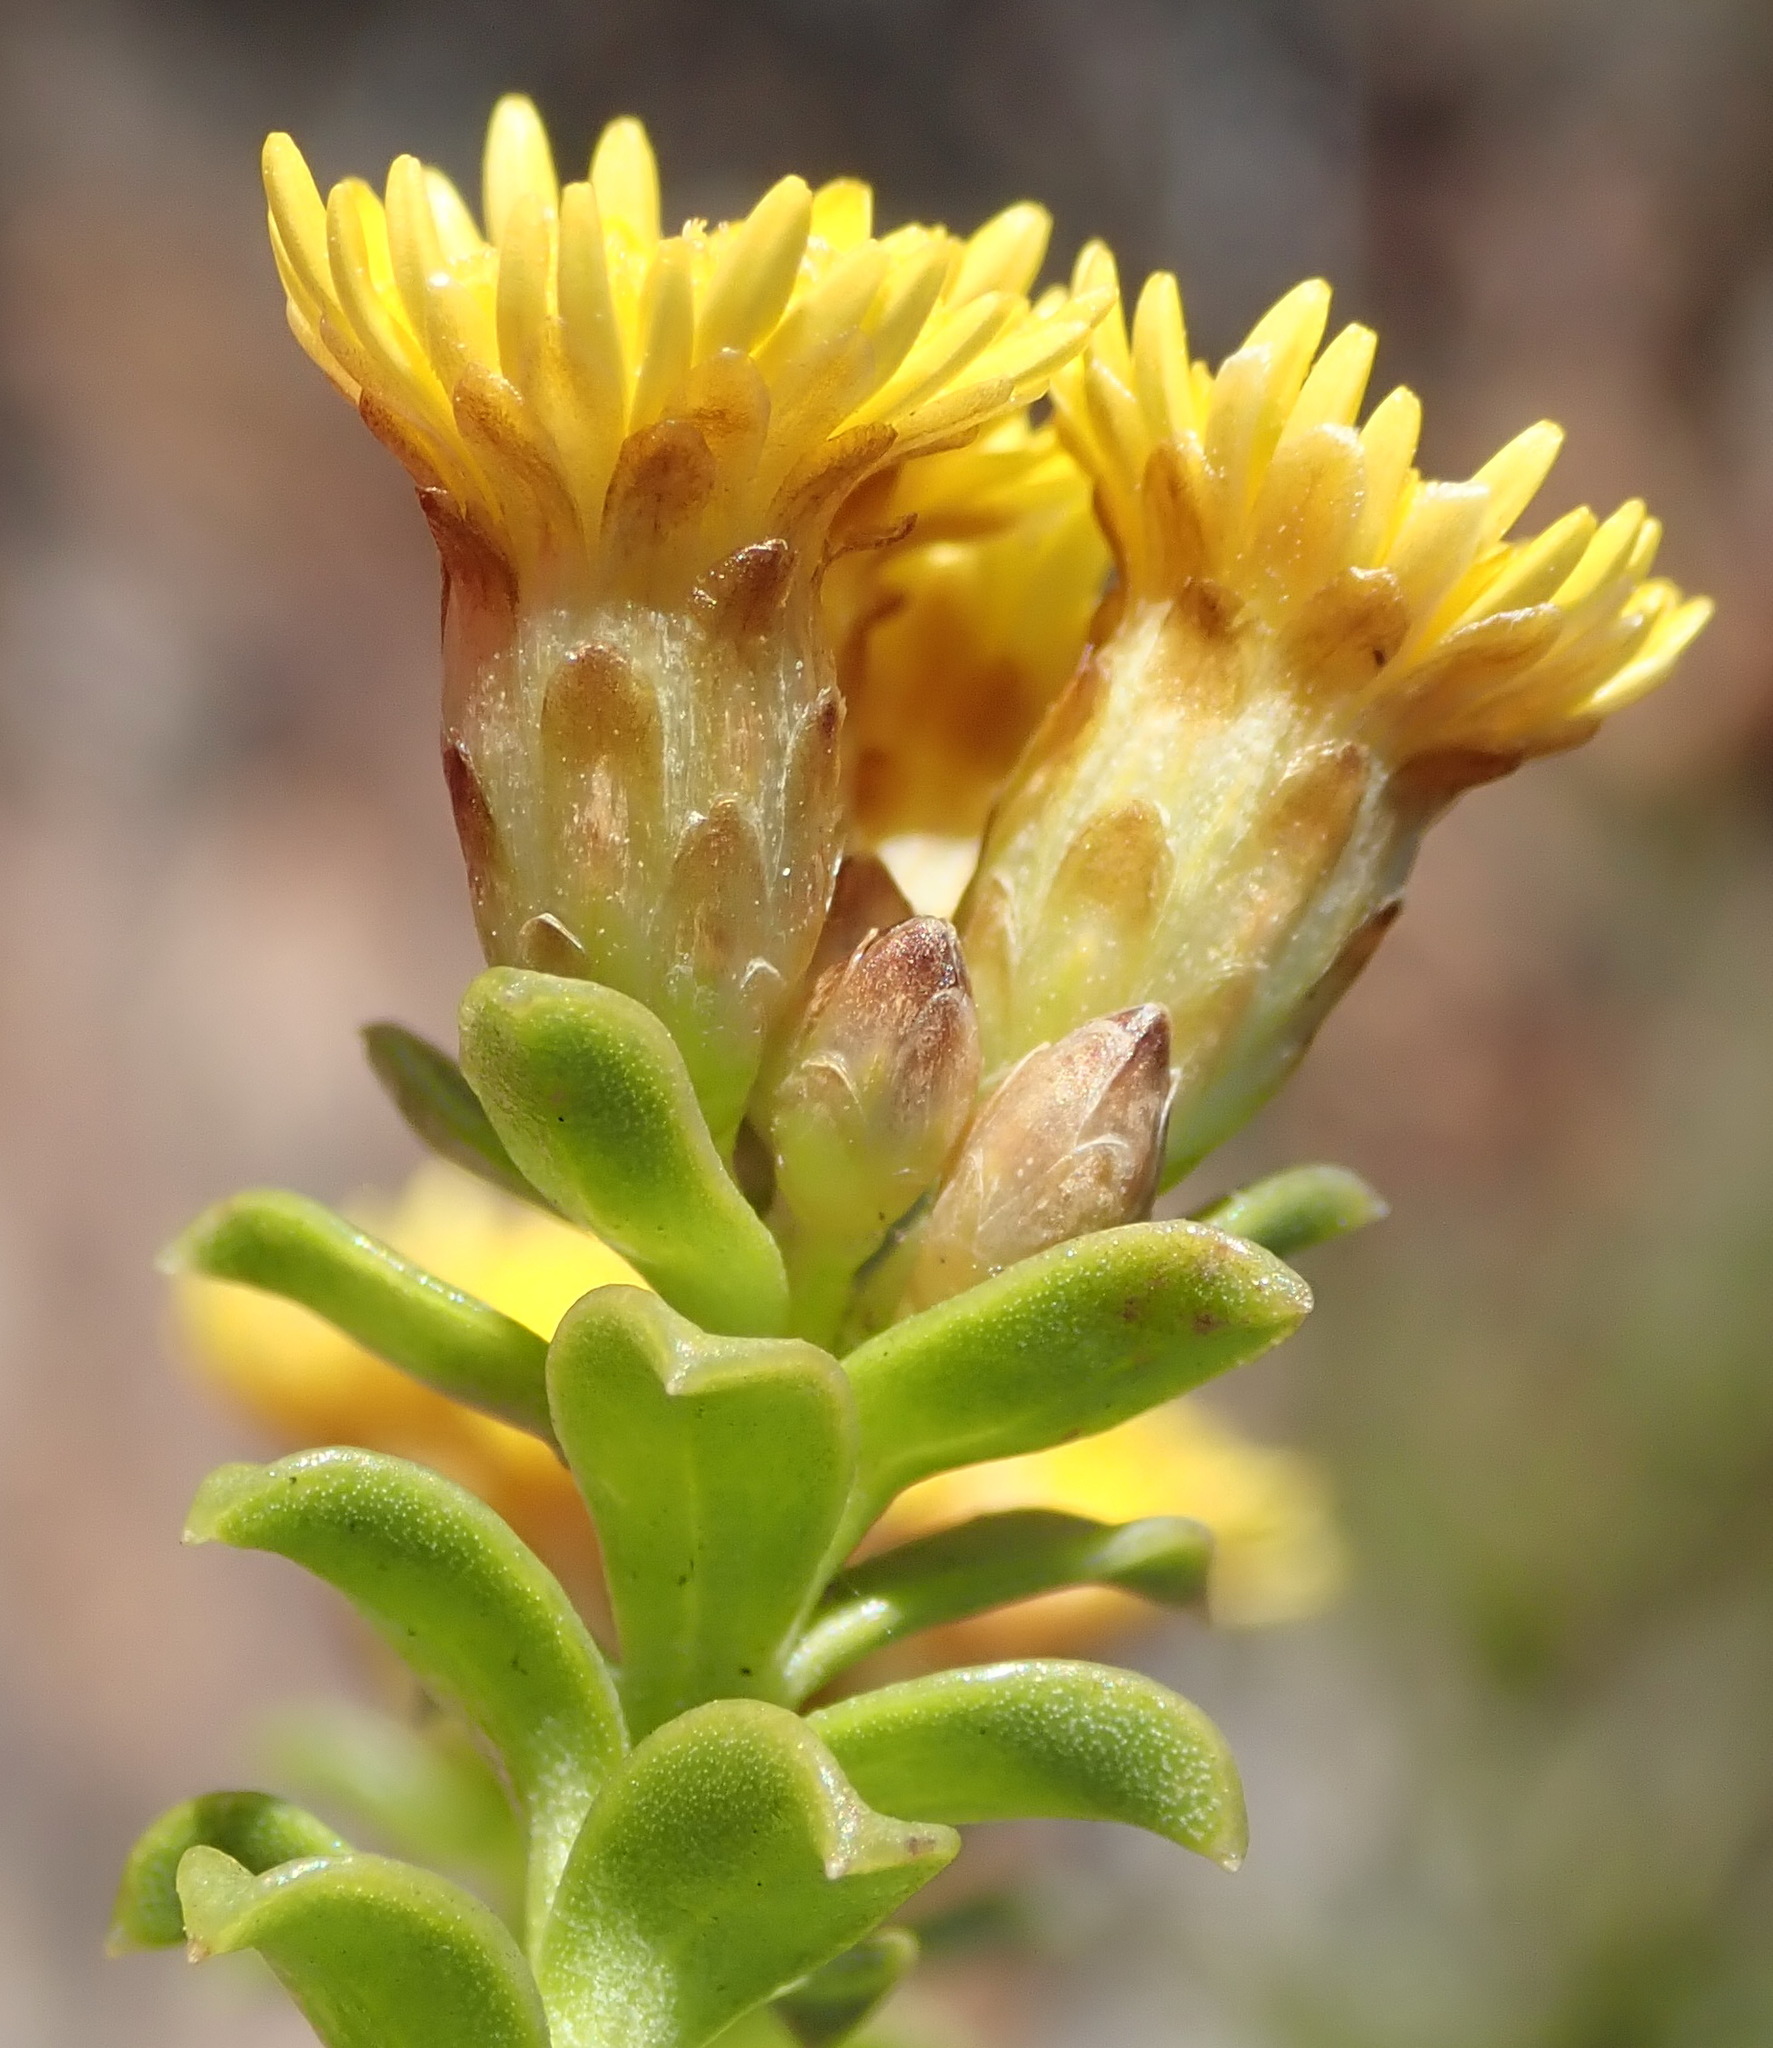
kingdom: Plantae
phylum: Tracheophyta
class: Magnoliopsida
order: Asterales
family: Asteraceae
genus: Oedera
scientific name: Oedera squarrosa
